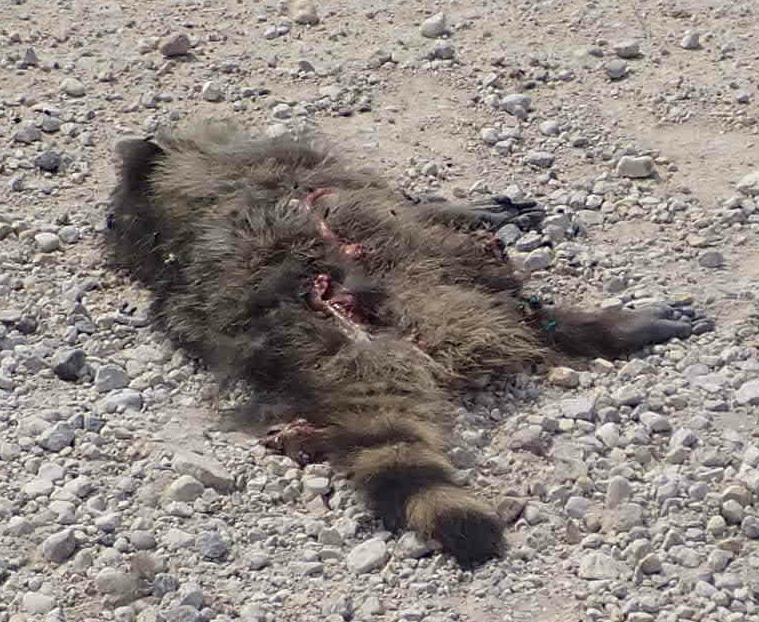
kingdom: Animalia
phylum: Chordata
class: Mammalia
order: Carnivora
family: Procyonidae
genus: Procyon
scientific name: Procyon lotor
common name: Raccoon
